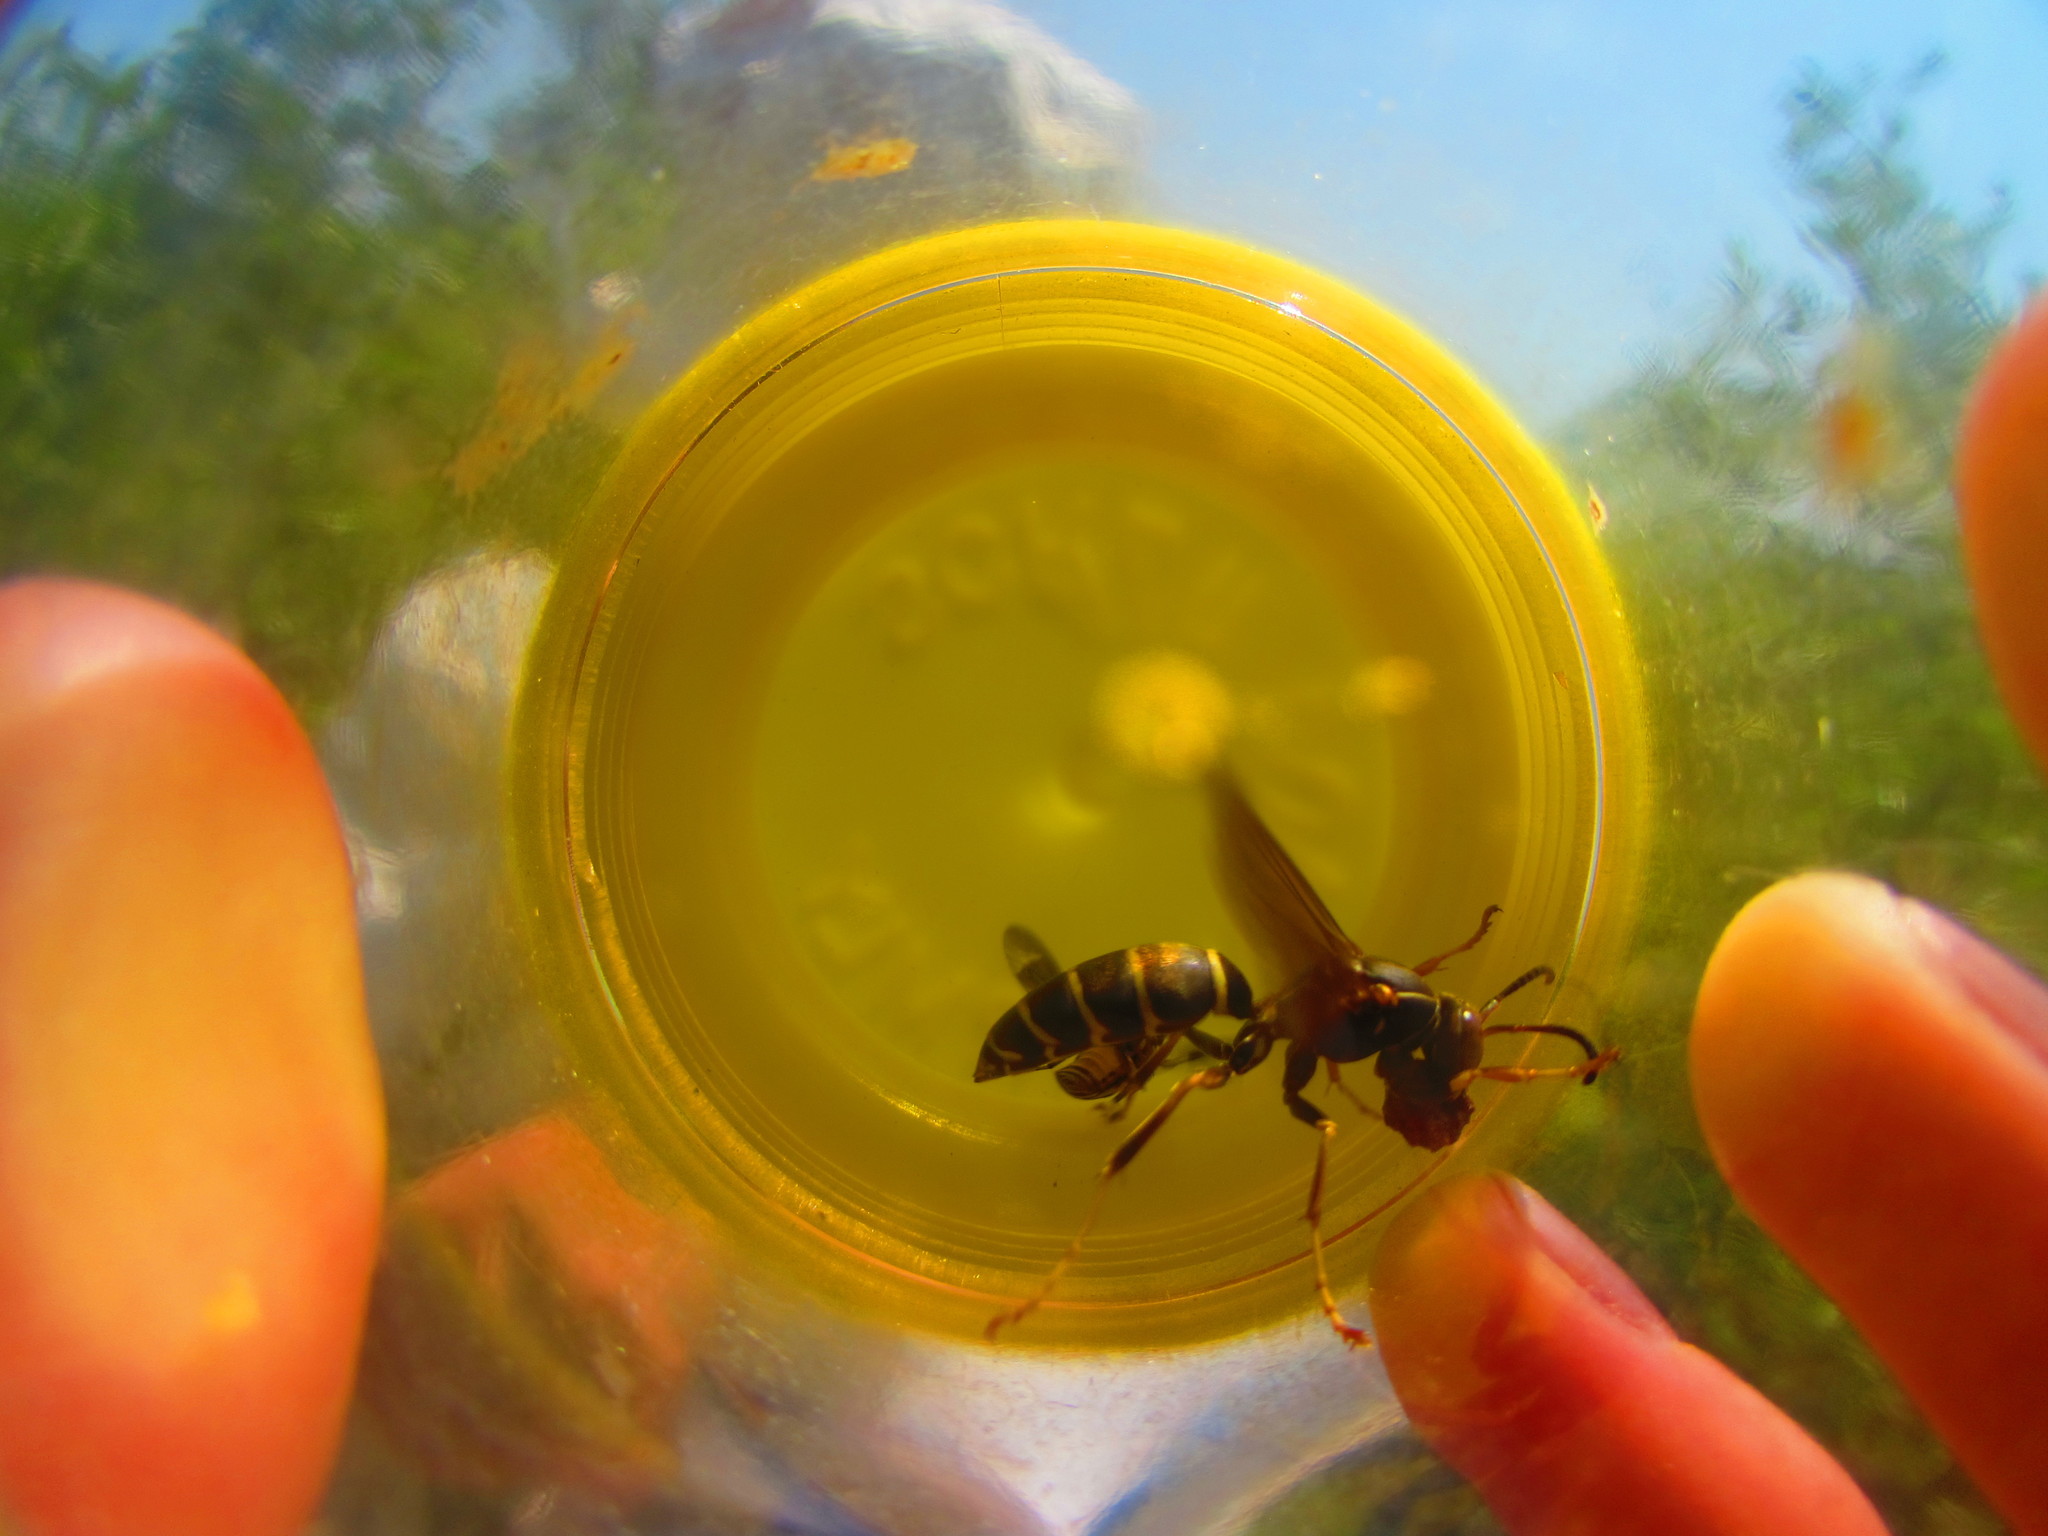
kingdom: Animalia
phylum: Arthropoda
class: Insecta
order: Hymenoptera
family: Eumenidae
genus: Polistes
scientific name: Polistes fuscatus
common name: Dark paper wasp
